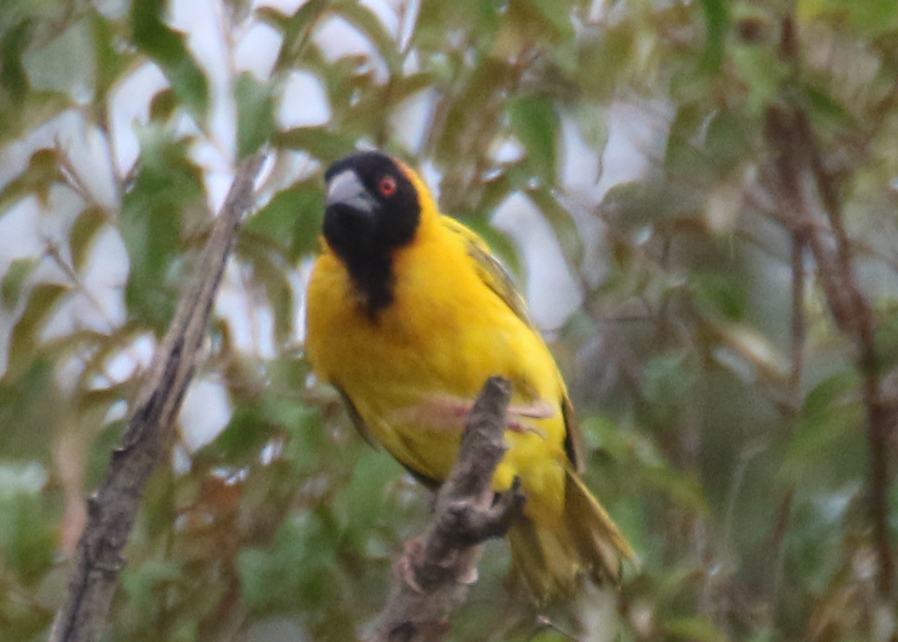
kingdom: Animalia
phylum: Chordata
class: Aves
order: Passeriformes
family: Ploceidae
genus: Ploceus
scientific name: Ploceus cucullatus
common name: Village weaver
